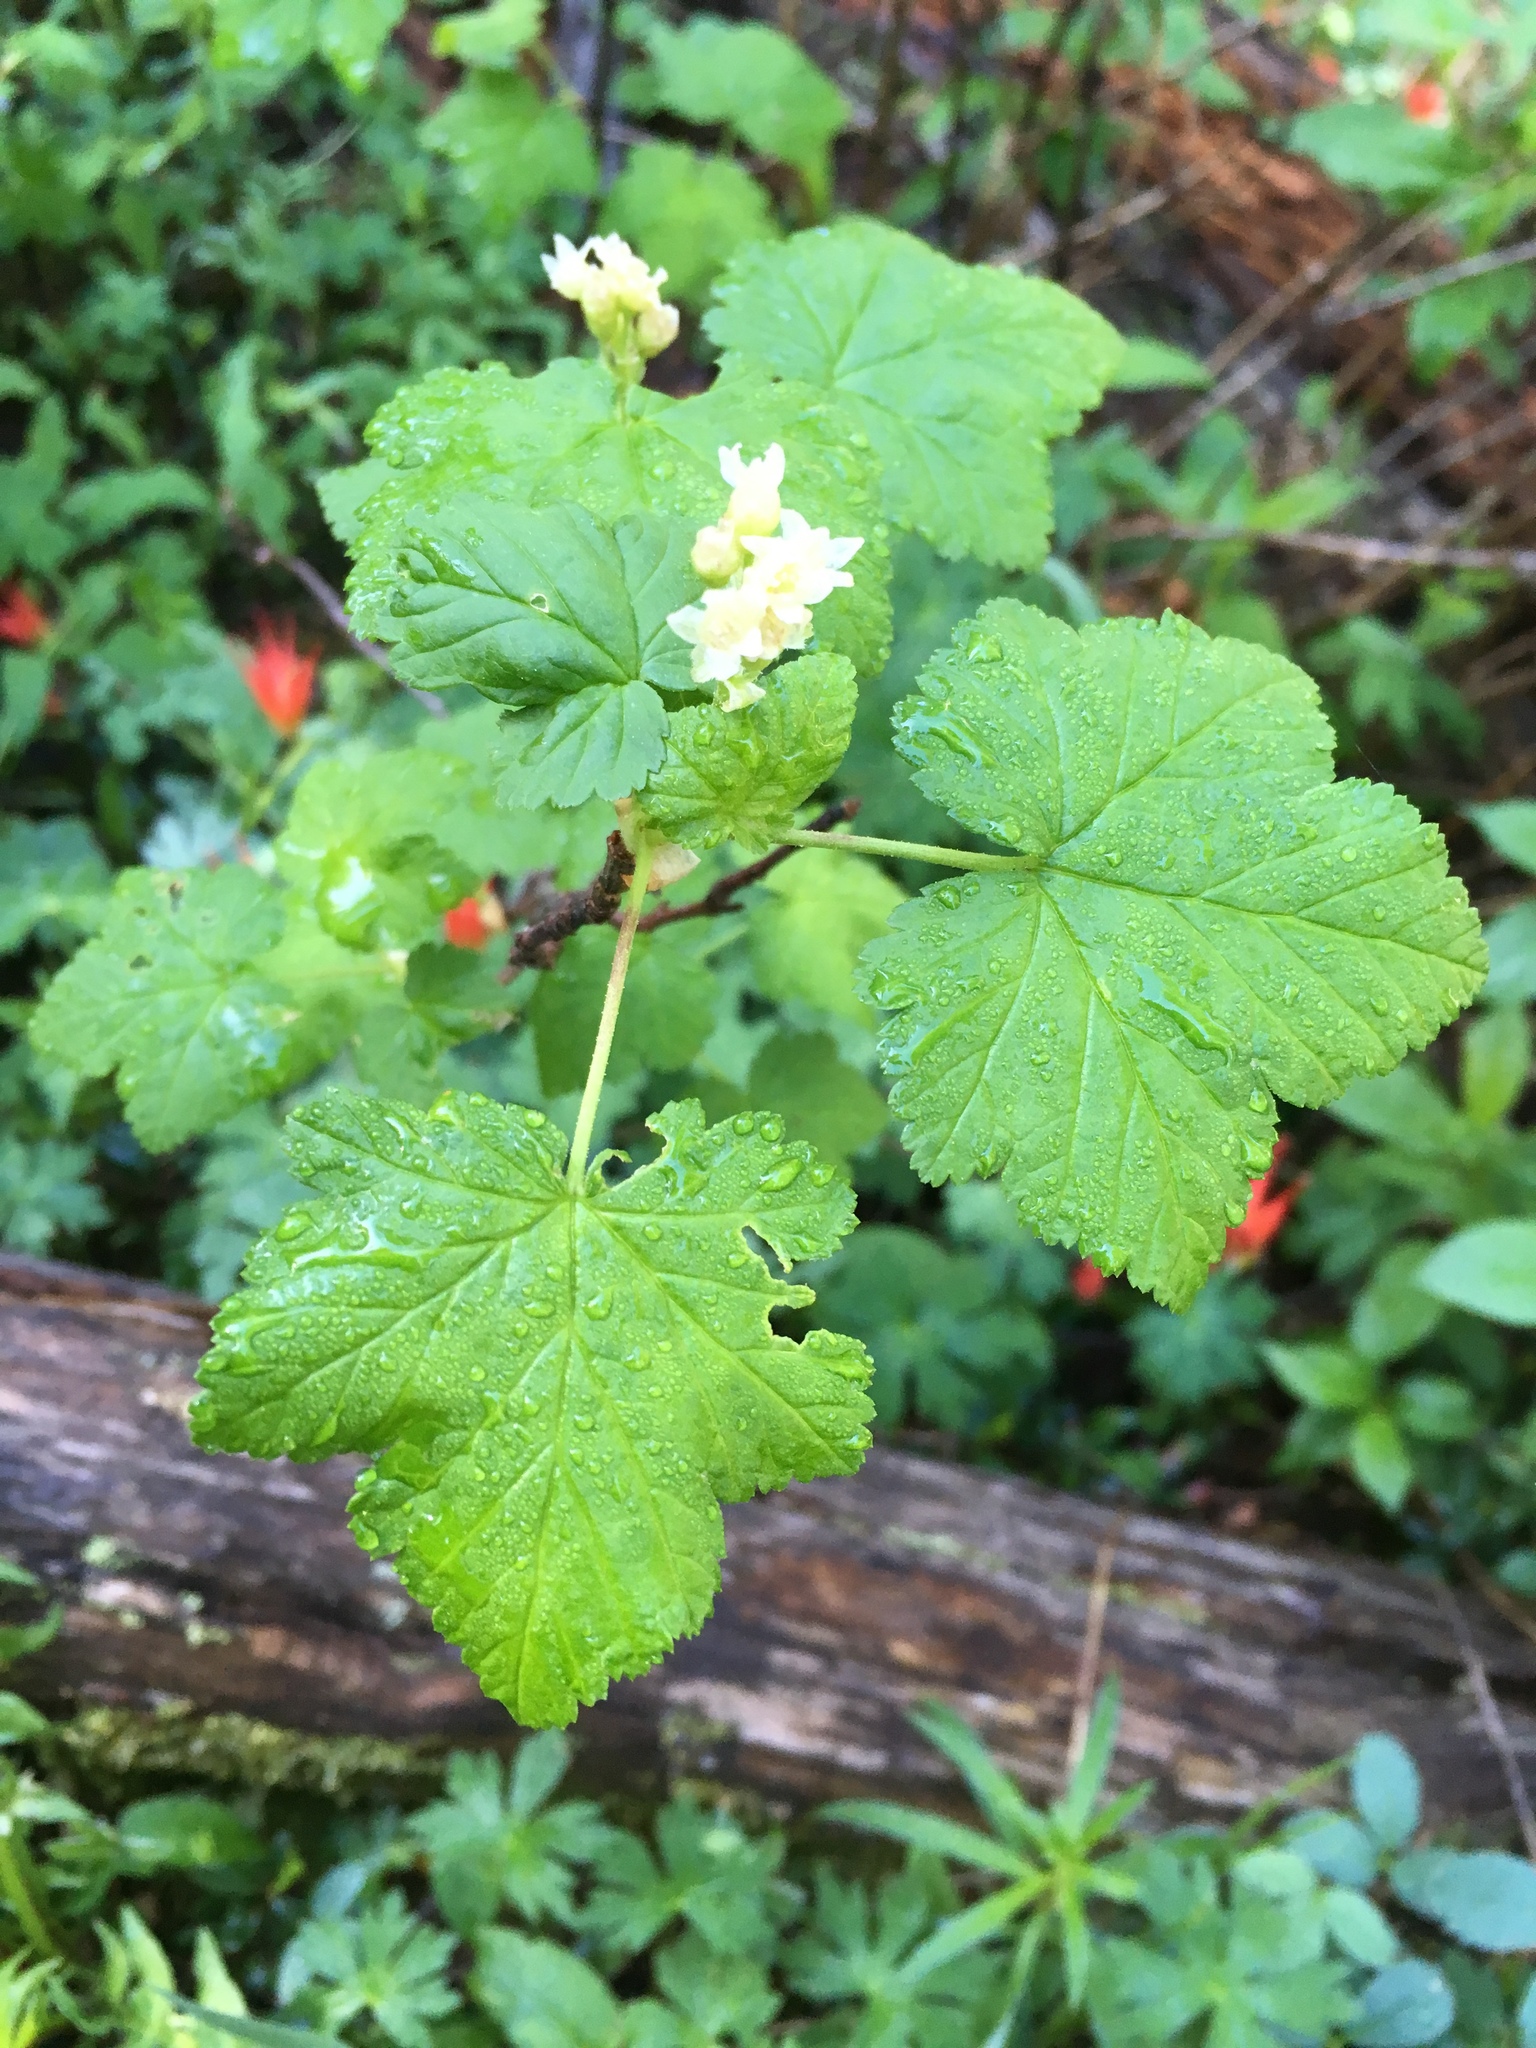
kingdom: Plantae
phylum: Tracheophyta
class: Magnoliopsida
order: Saxifragales
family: Grossulariaceae
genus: Ribes
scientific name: Ribes wolfii
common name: Rothrock currant
